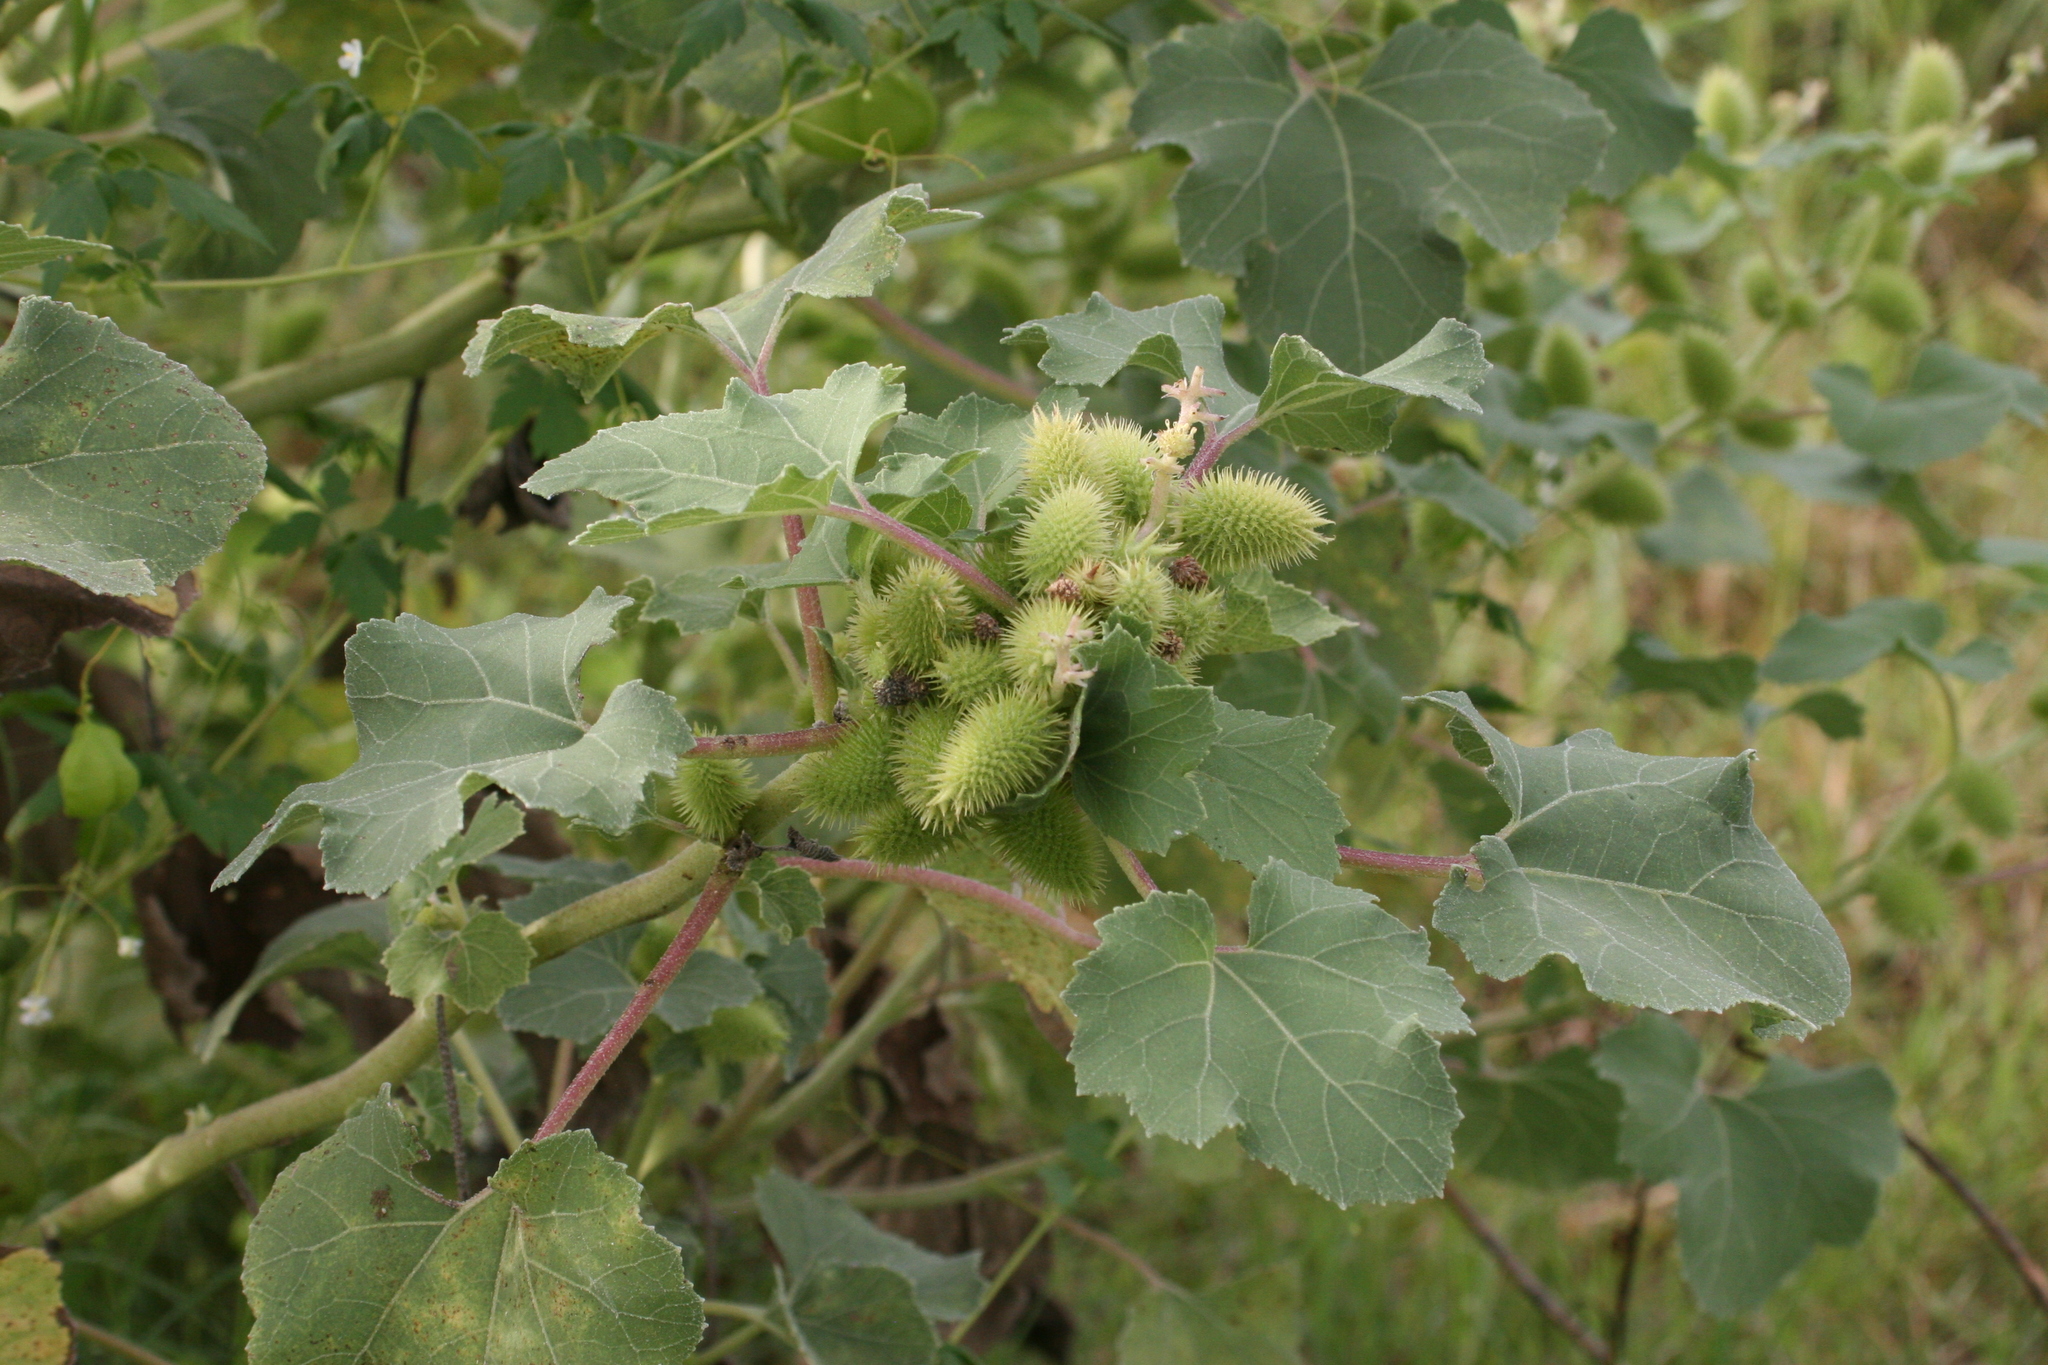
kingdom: Plantae
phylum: Tracheophyta
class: Magnoliopsida
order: Asterales
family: Asteraceae
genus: Xanthium
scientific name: Xanthium strumarium
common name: Rough cocklebur
